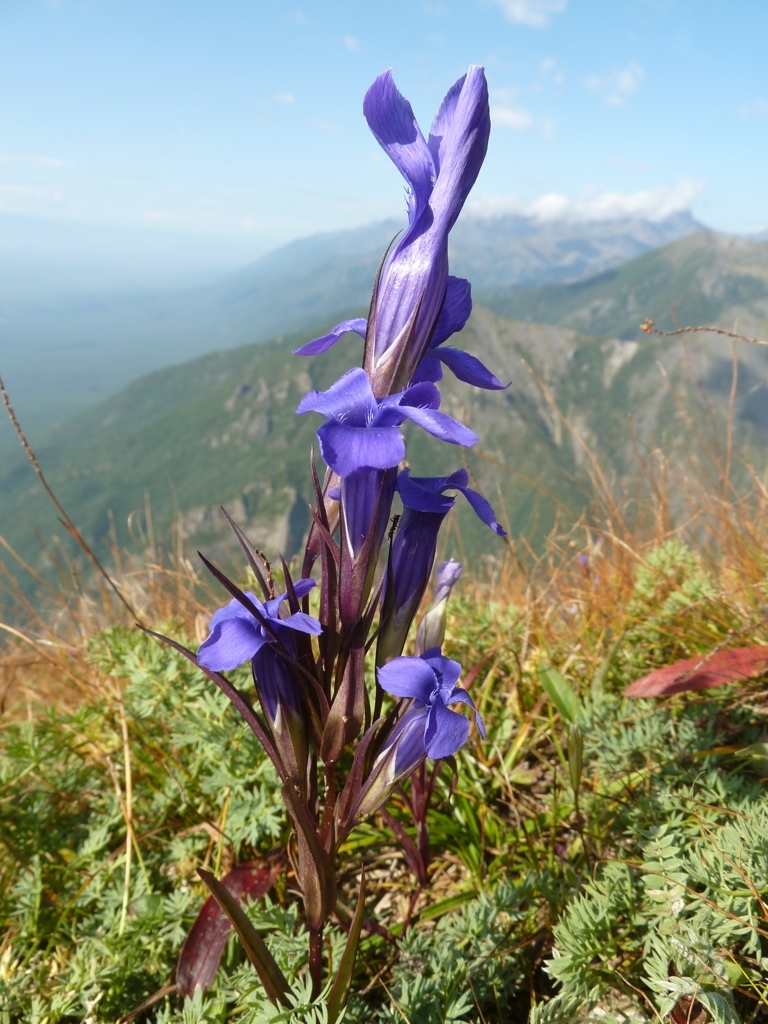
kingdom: Plantae
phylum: Tracheophyta
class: Magnoliopsida
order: Gentianales
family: Gentianaceae
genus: Gentianopsis
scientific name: Gentianopsis barbata
